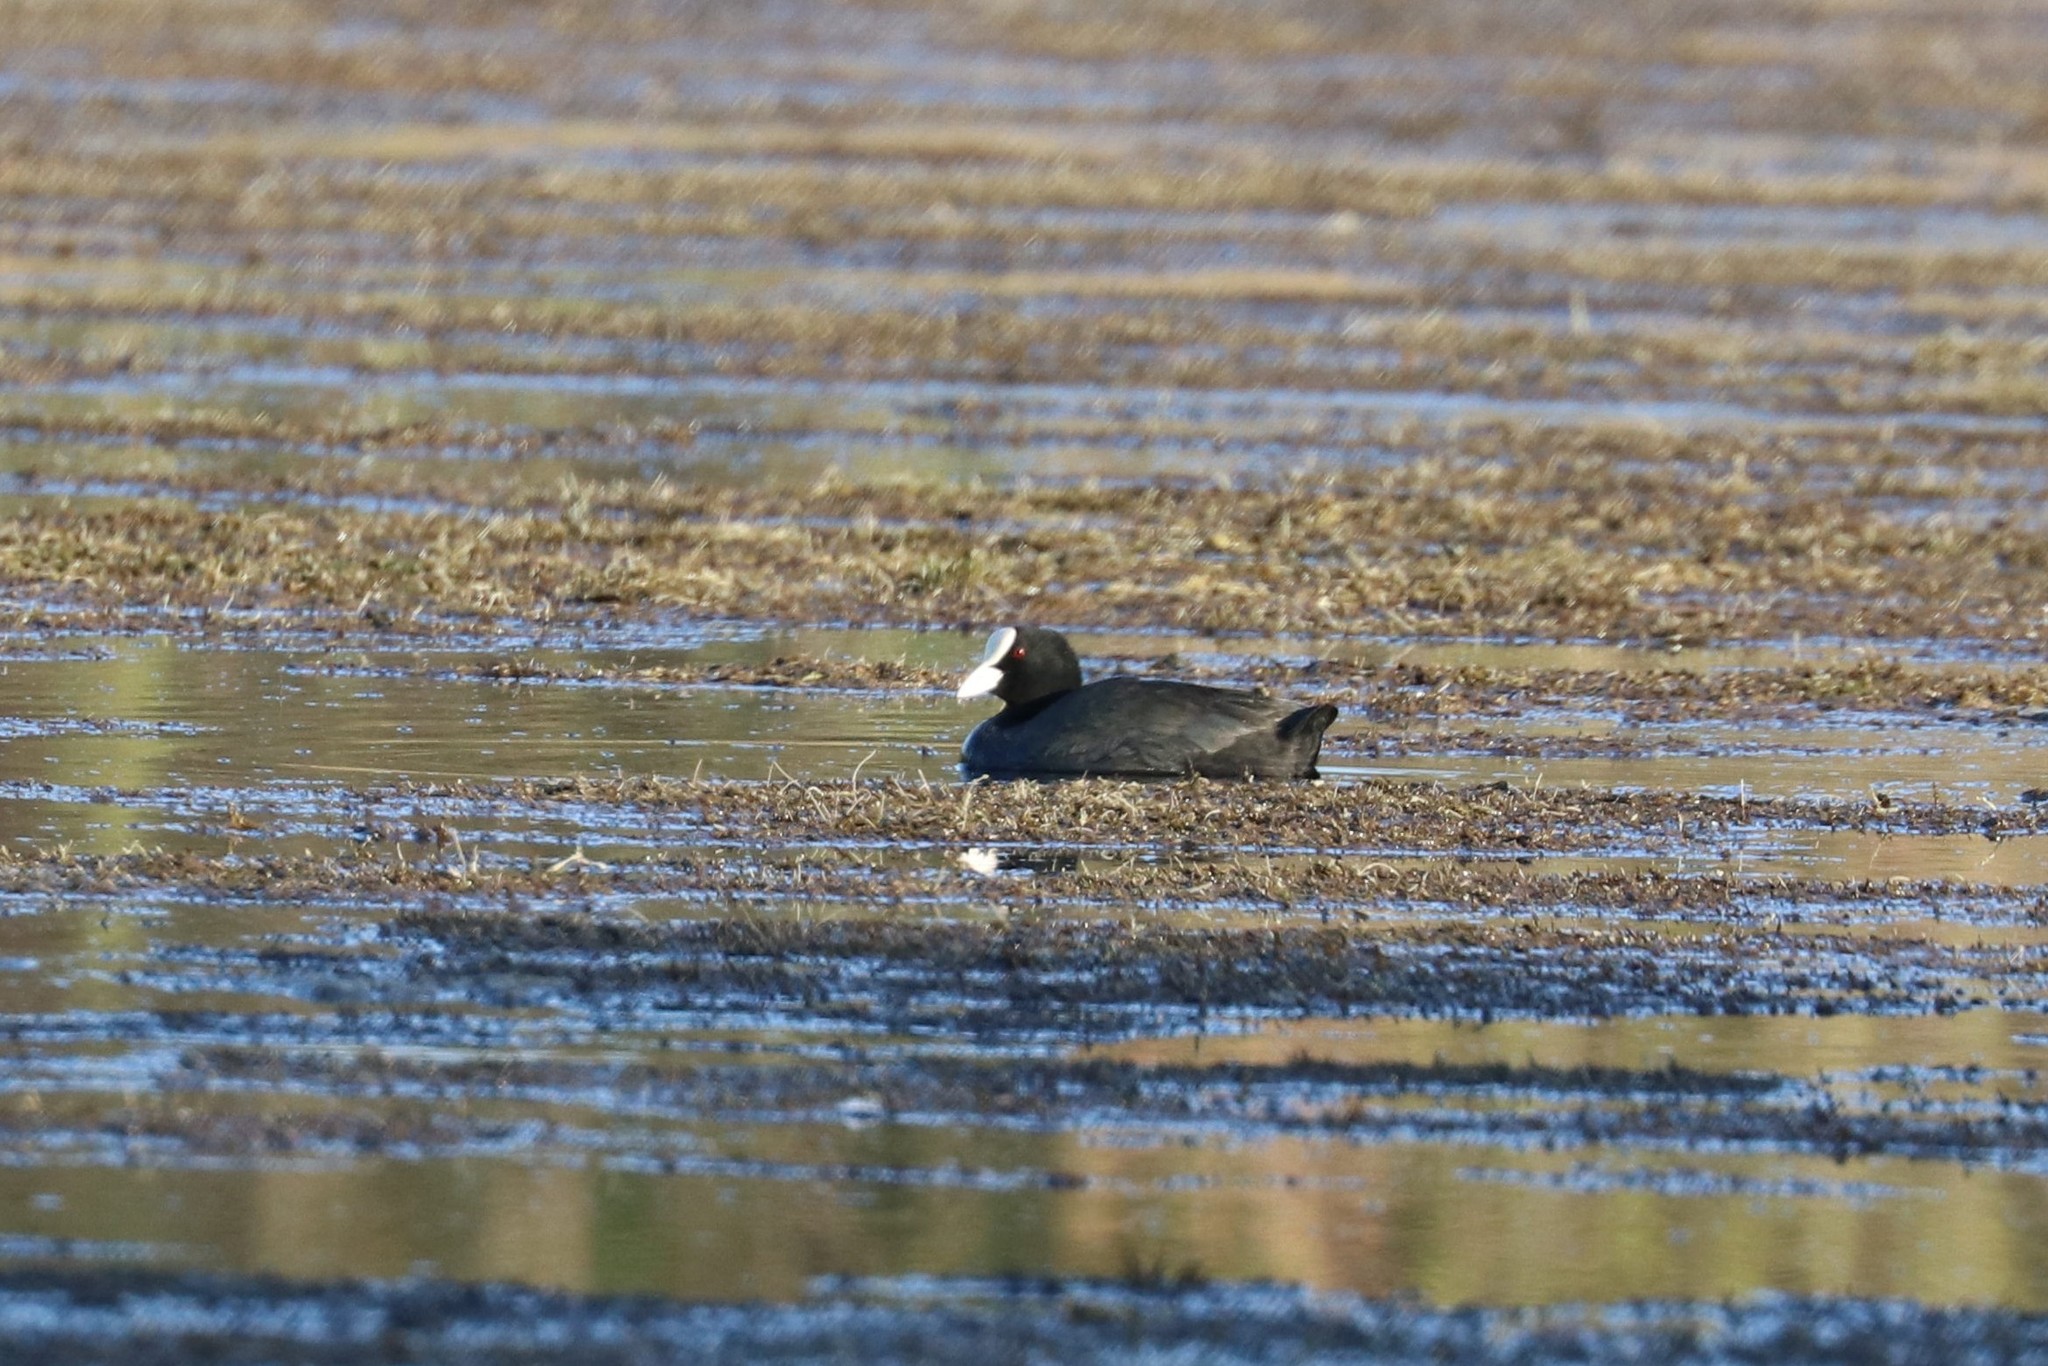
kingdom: Animalia
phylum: Chordata
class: Aves
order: Gruiformes
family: Rallidae
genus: Fulica
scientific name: Fulica atra
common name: Eurasian coot
